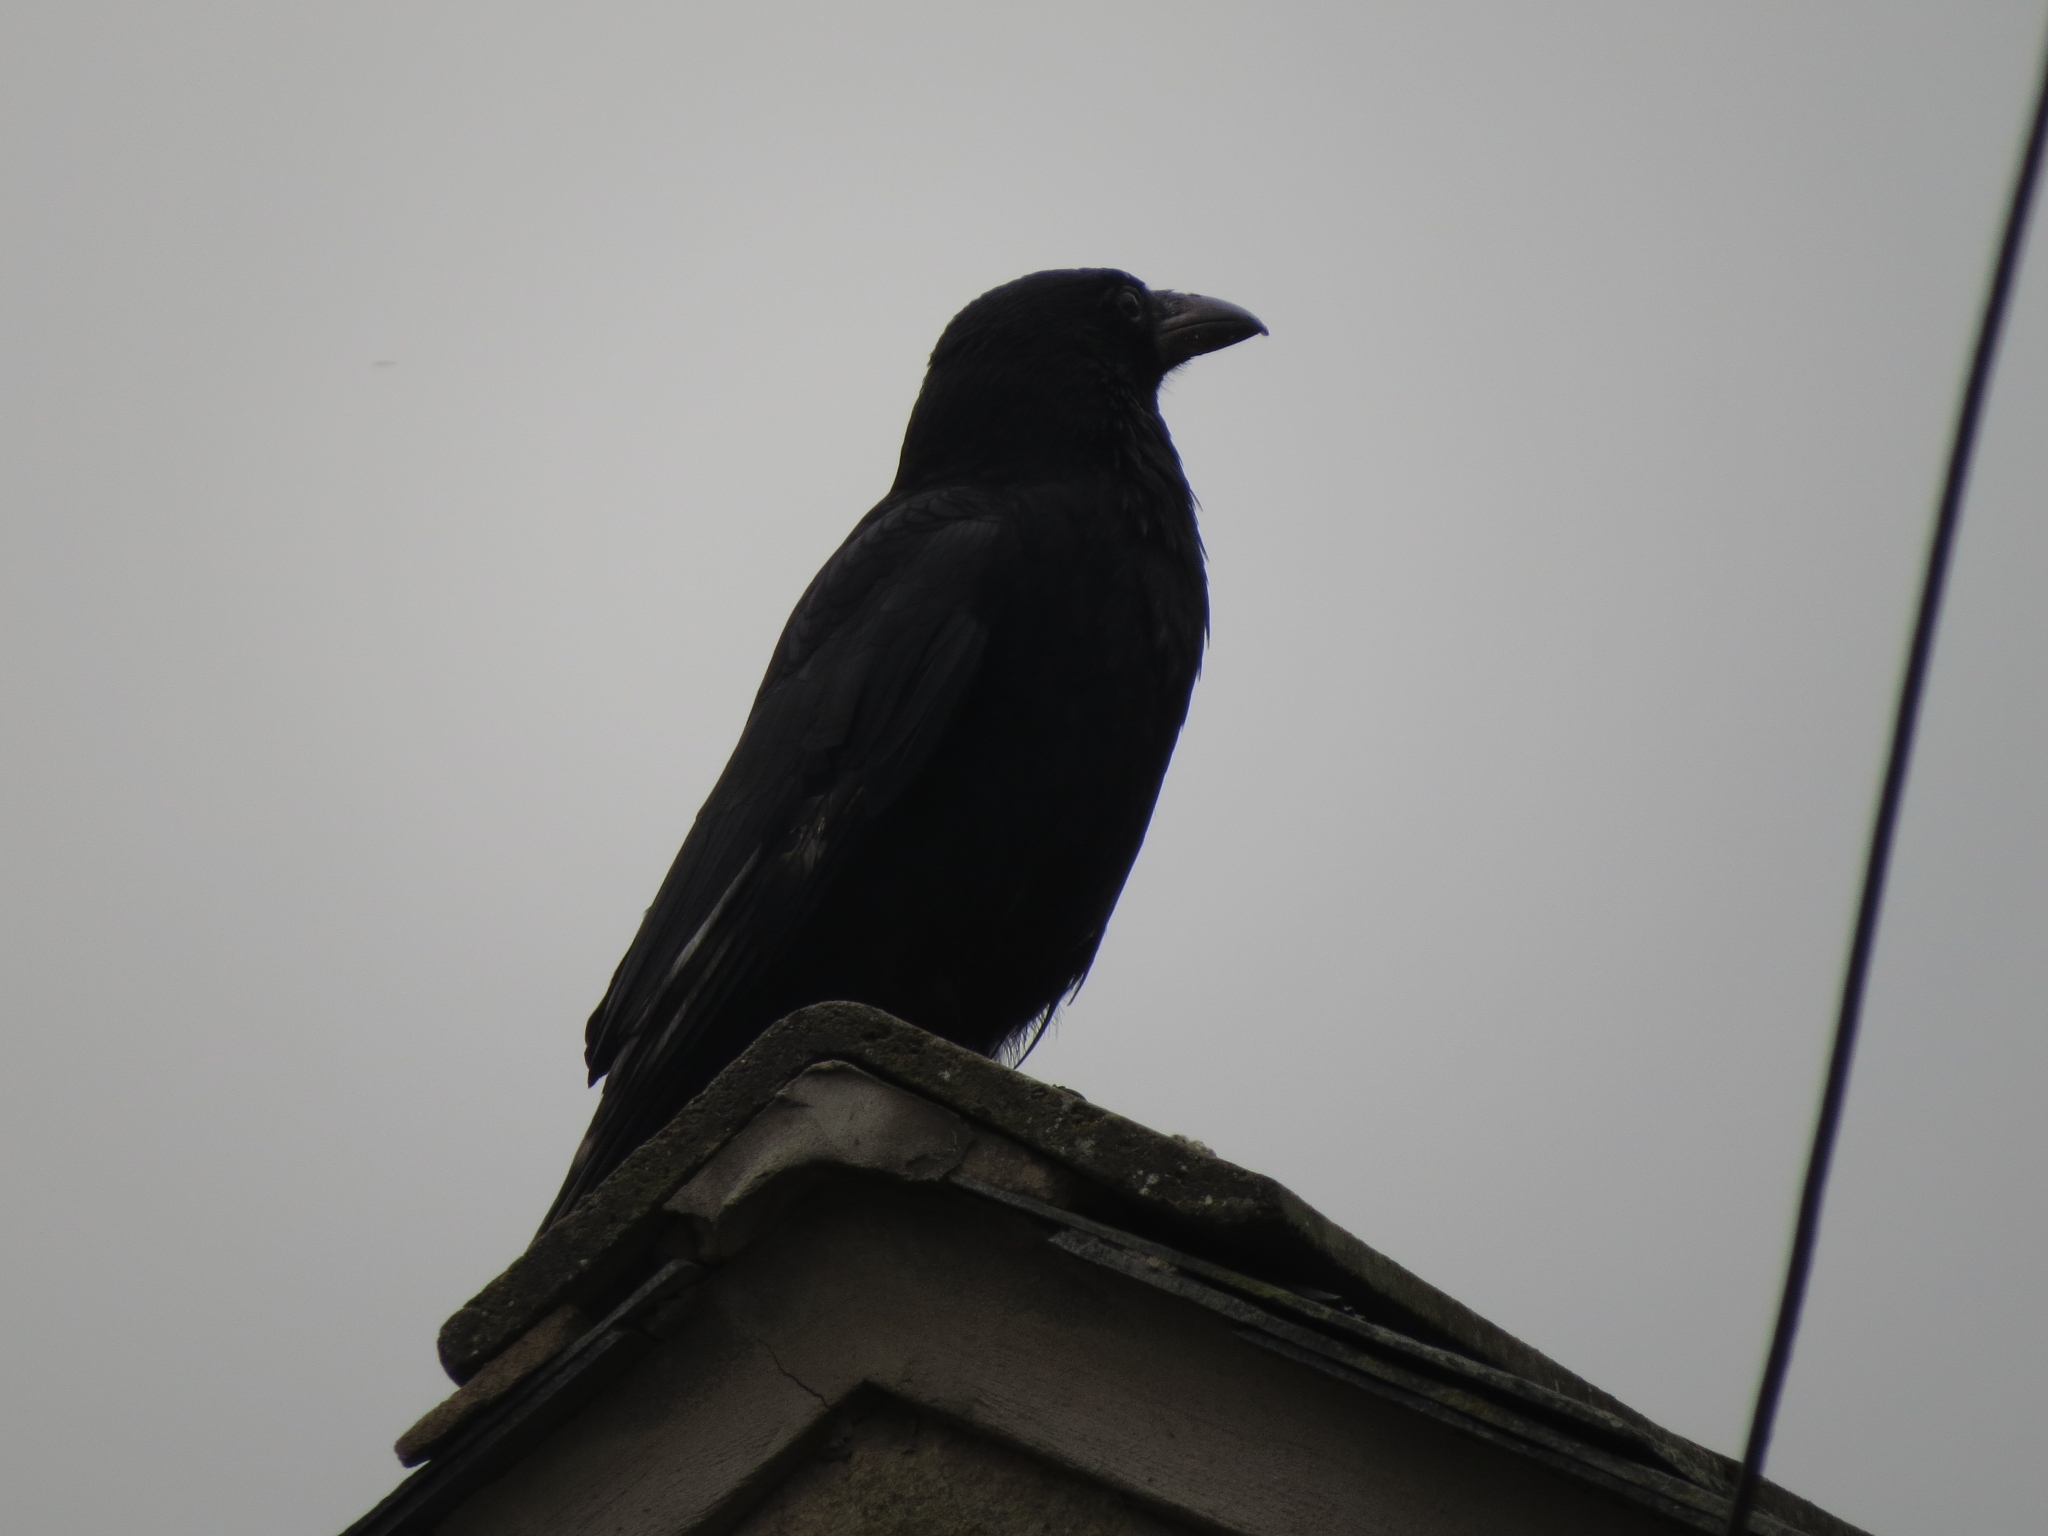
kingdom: Animalia
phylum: Chordata
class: Aves
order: Passeriformes
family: Corvidae
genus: Corvus
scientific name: Corvus corone
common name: Carrion crow
